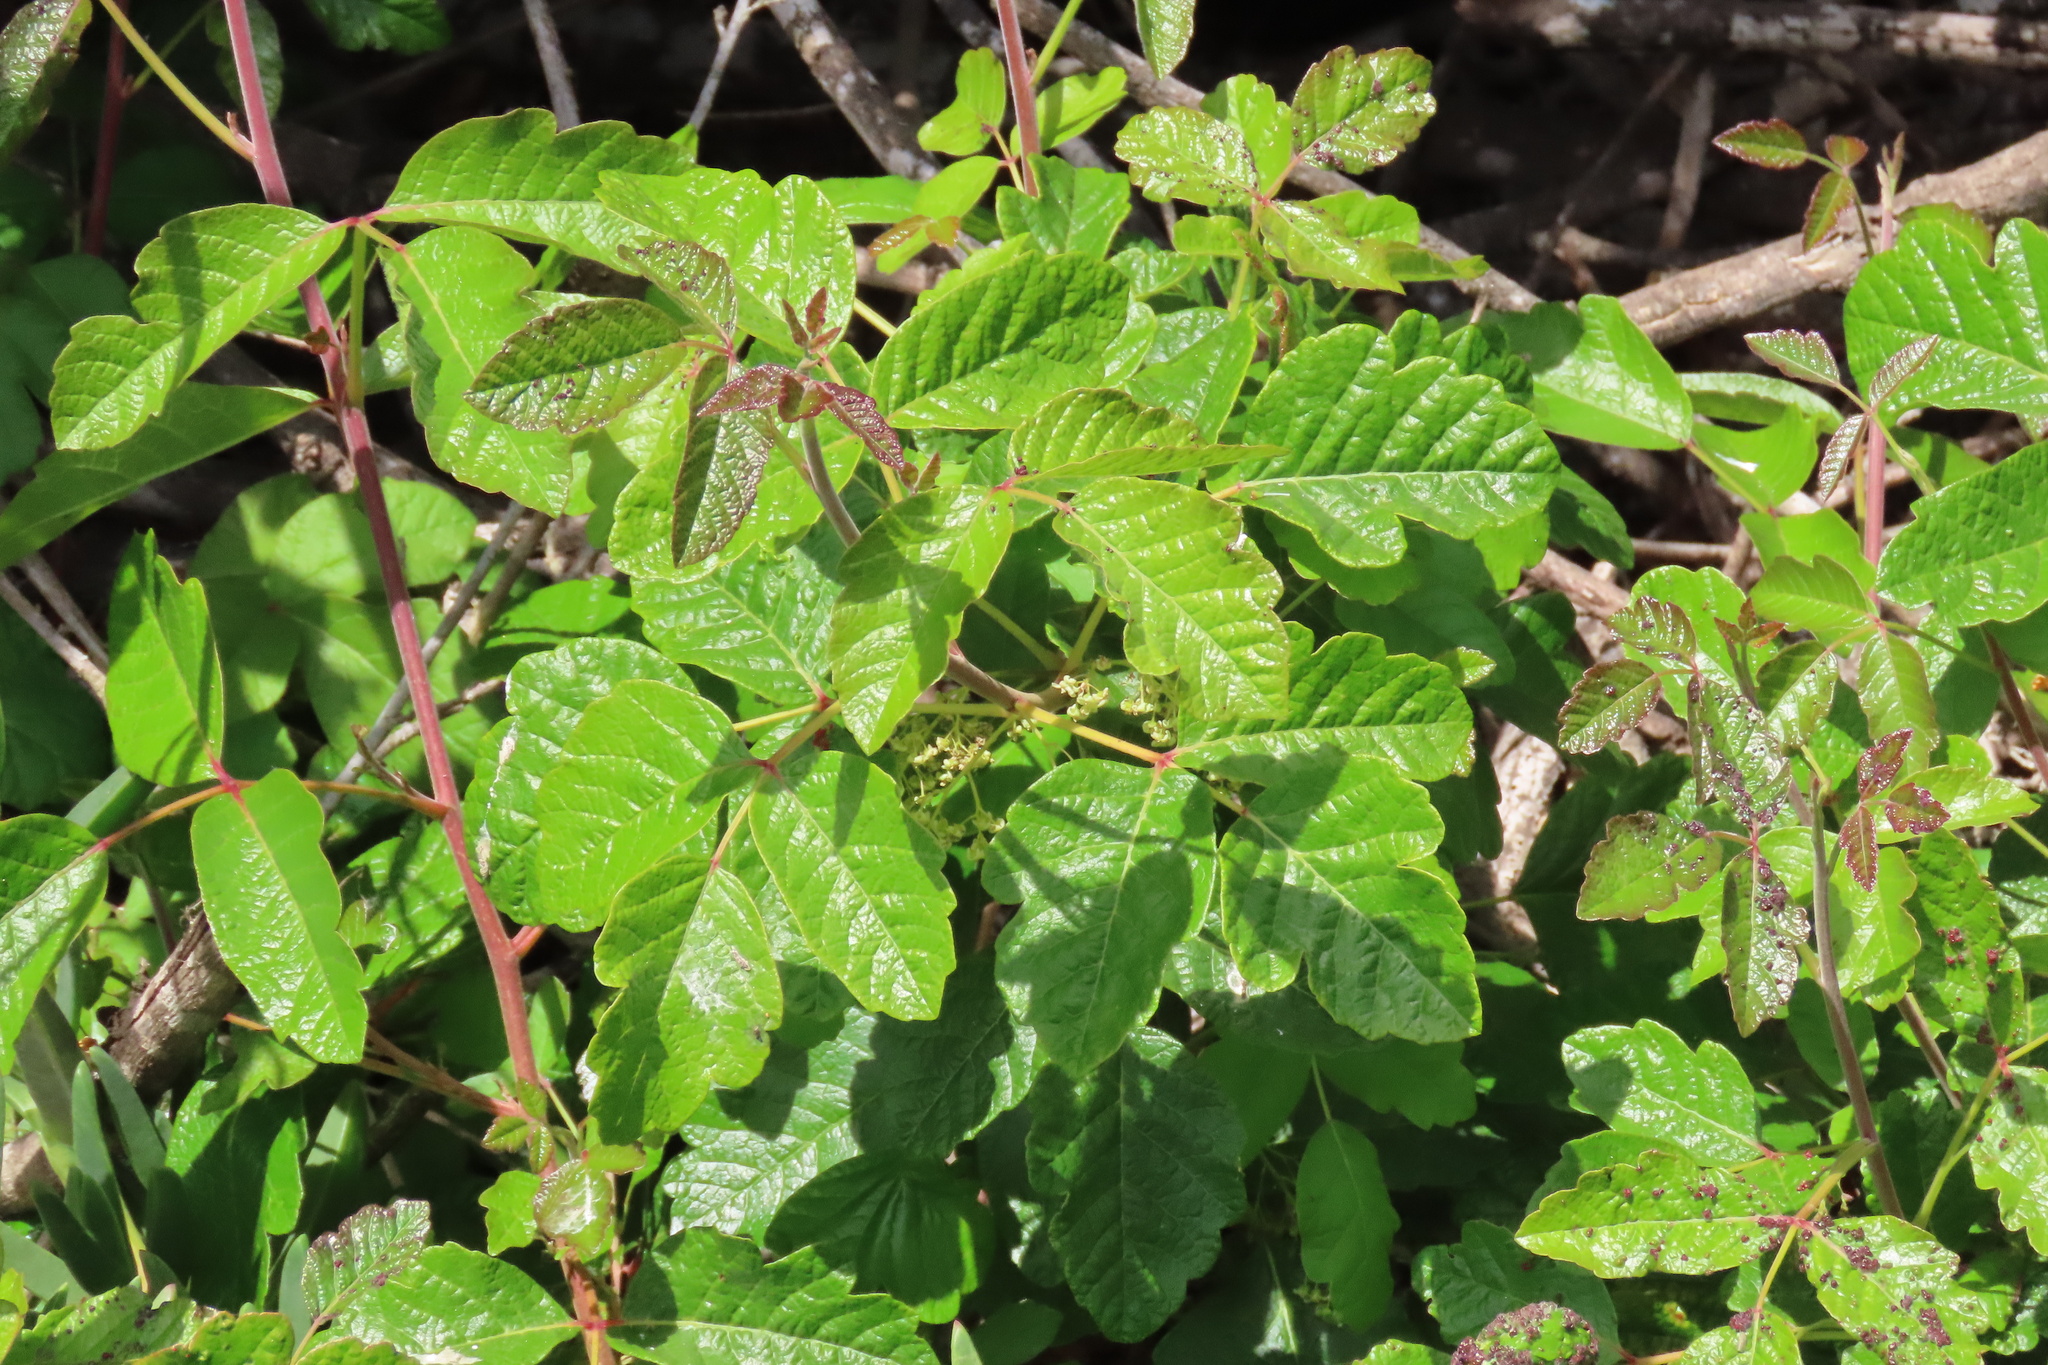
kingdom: Plantae
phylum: Tracheophyta
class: Magnoliopsida
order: Sapindales
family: Anacardiaceae
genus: Toxicodendron
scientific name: Toxicodendron diversilobum
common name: Pacific poison-oak
